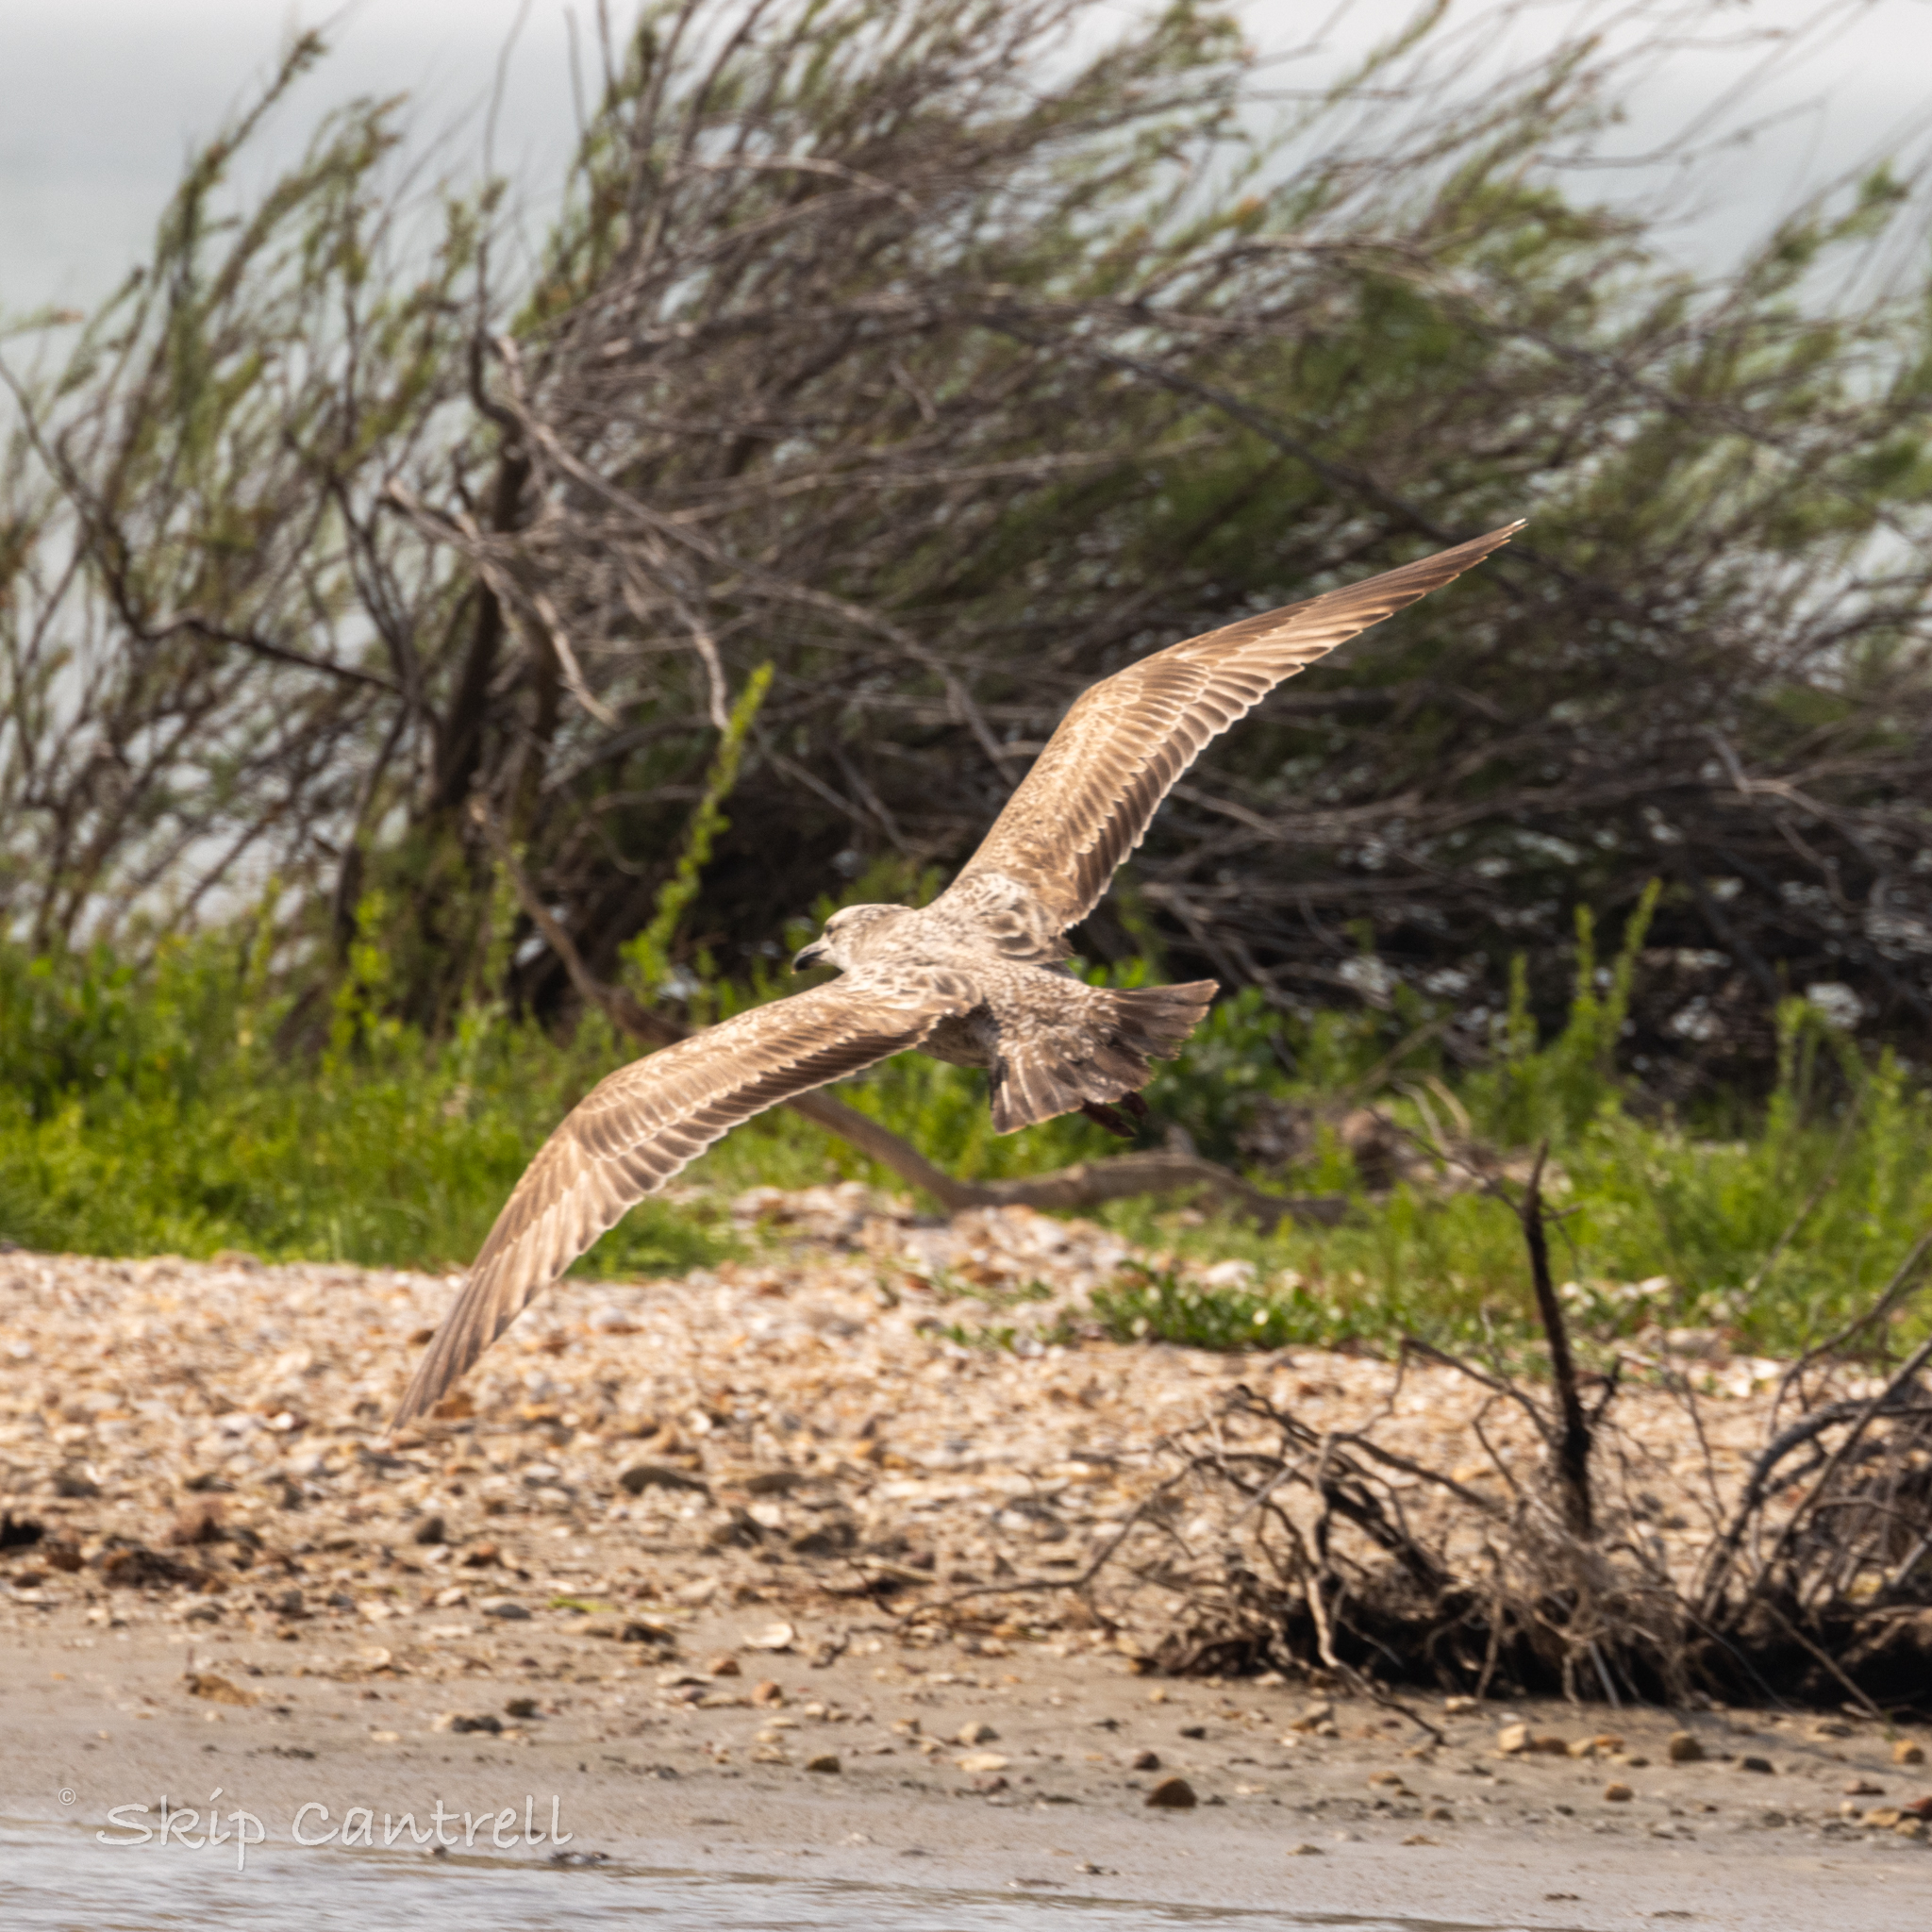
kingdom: Animalia
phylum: Chordata
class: Aves
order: Charadriiformes
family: Laridae
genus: Larus
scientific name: Larus argentatus
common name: Herring gull
